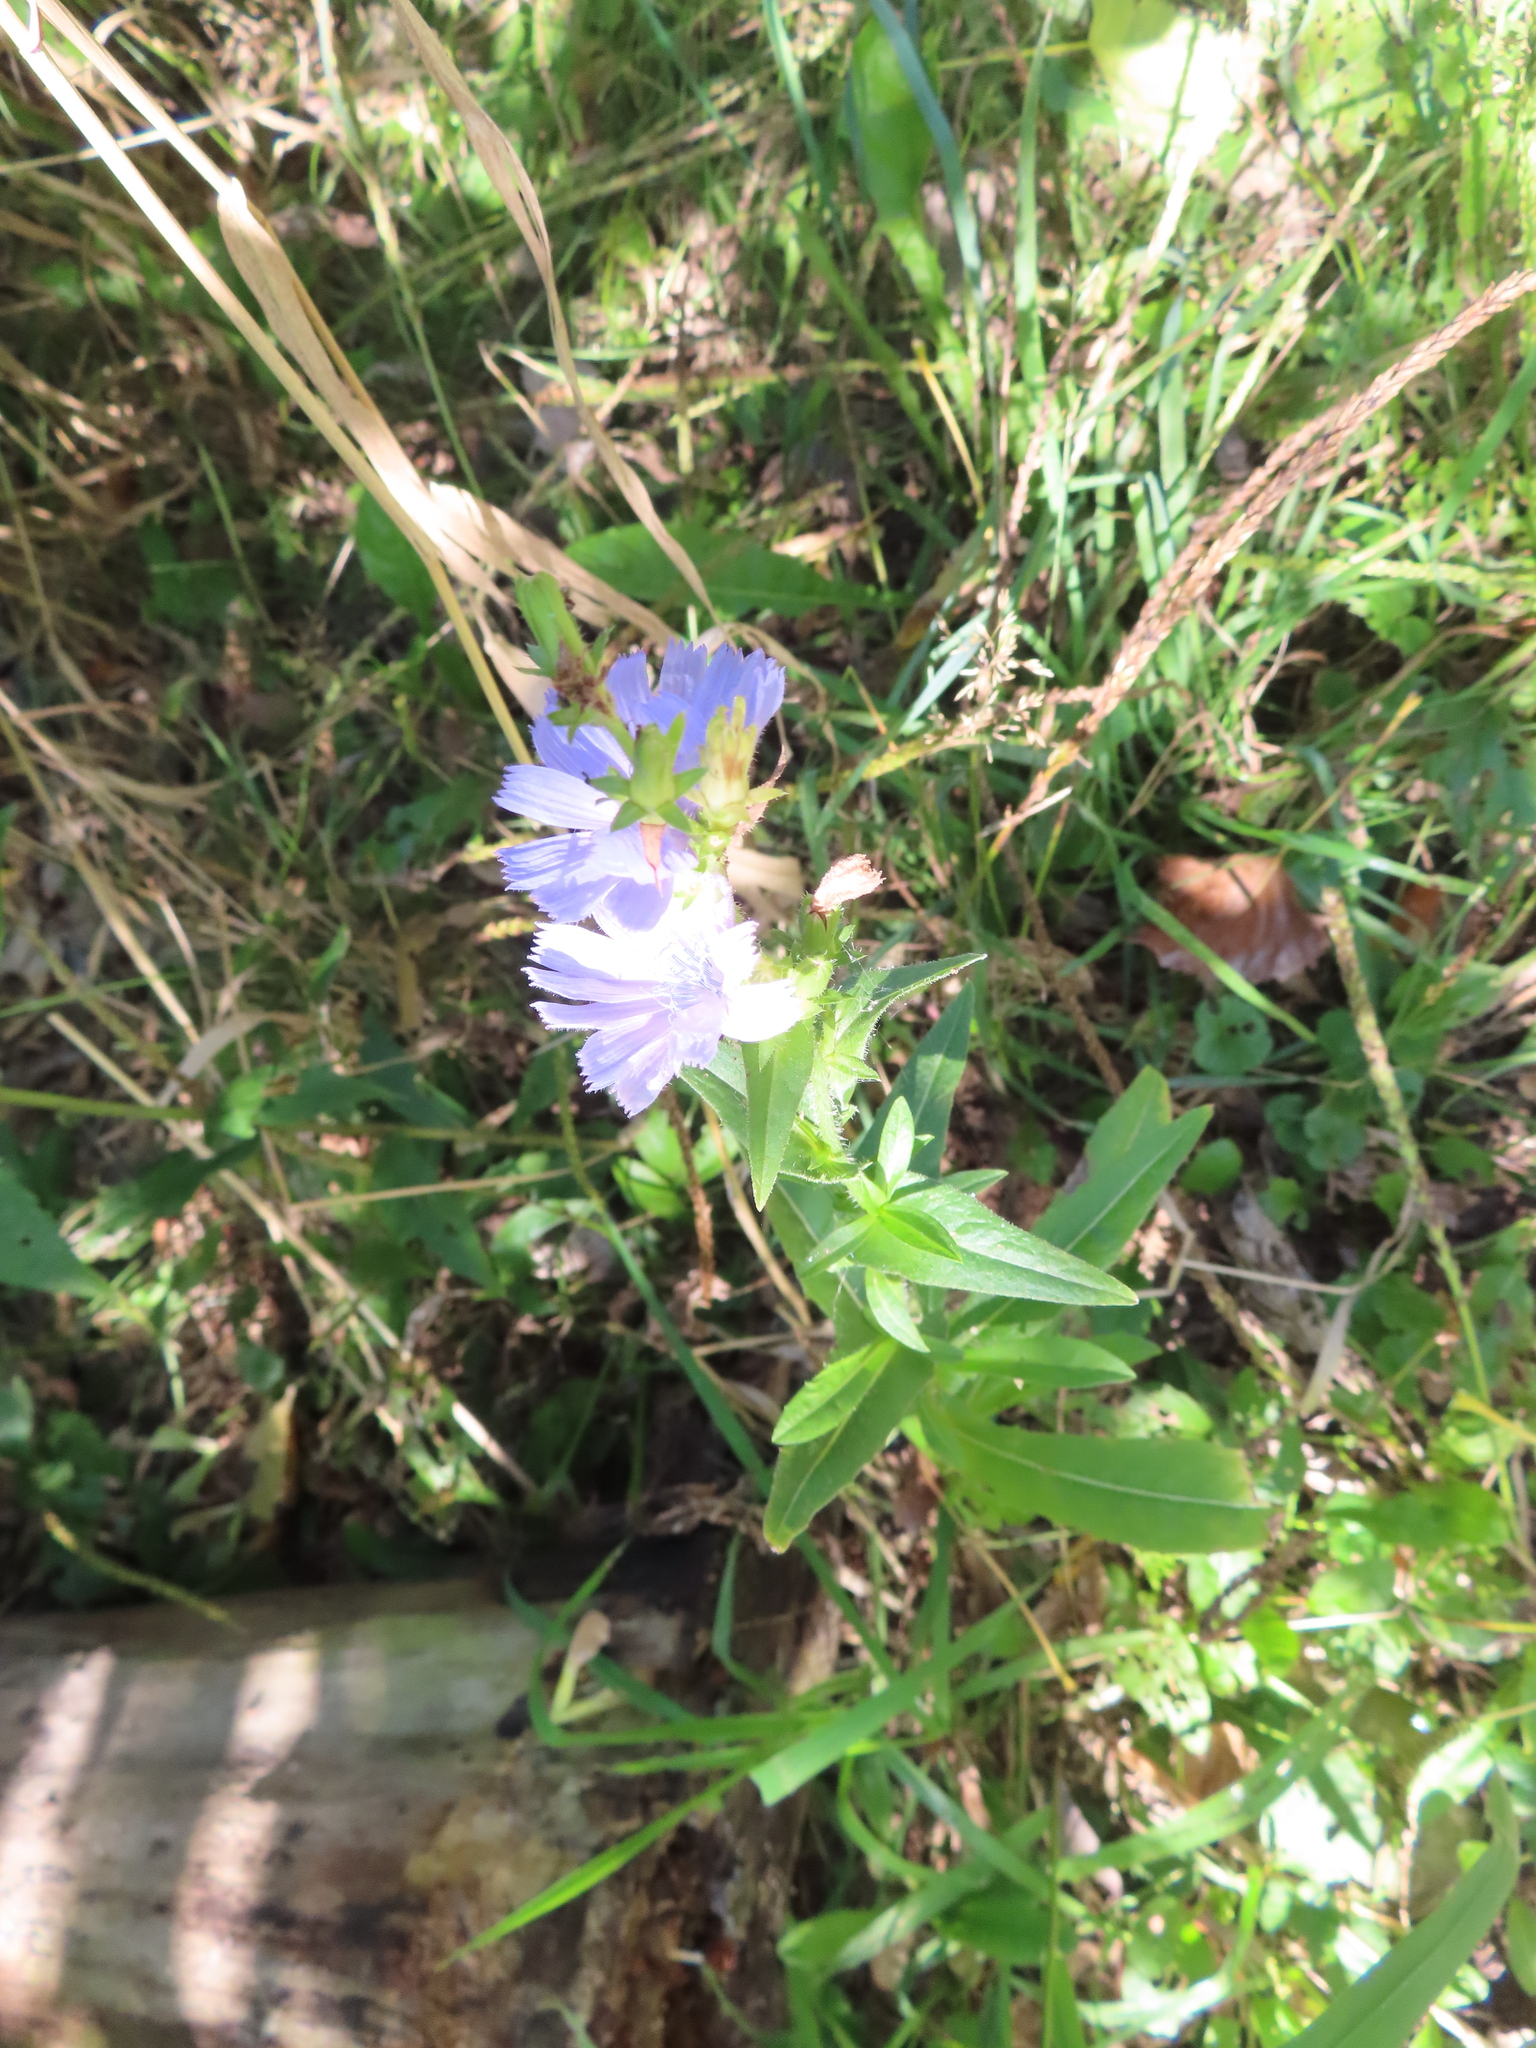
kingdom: Plantae
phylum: Tracheophyta
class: Magnoliopsida
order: Asterales
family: Asteraceae
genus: Cichorium
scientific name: Cichorium intybus
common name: Chicory
